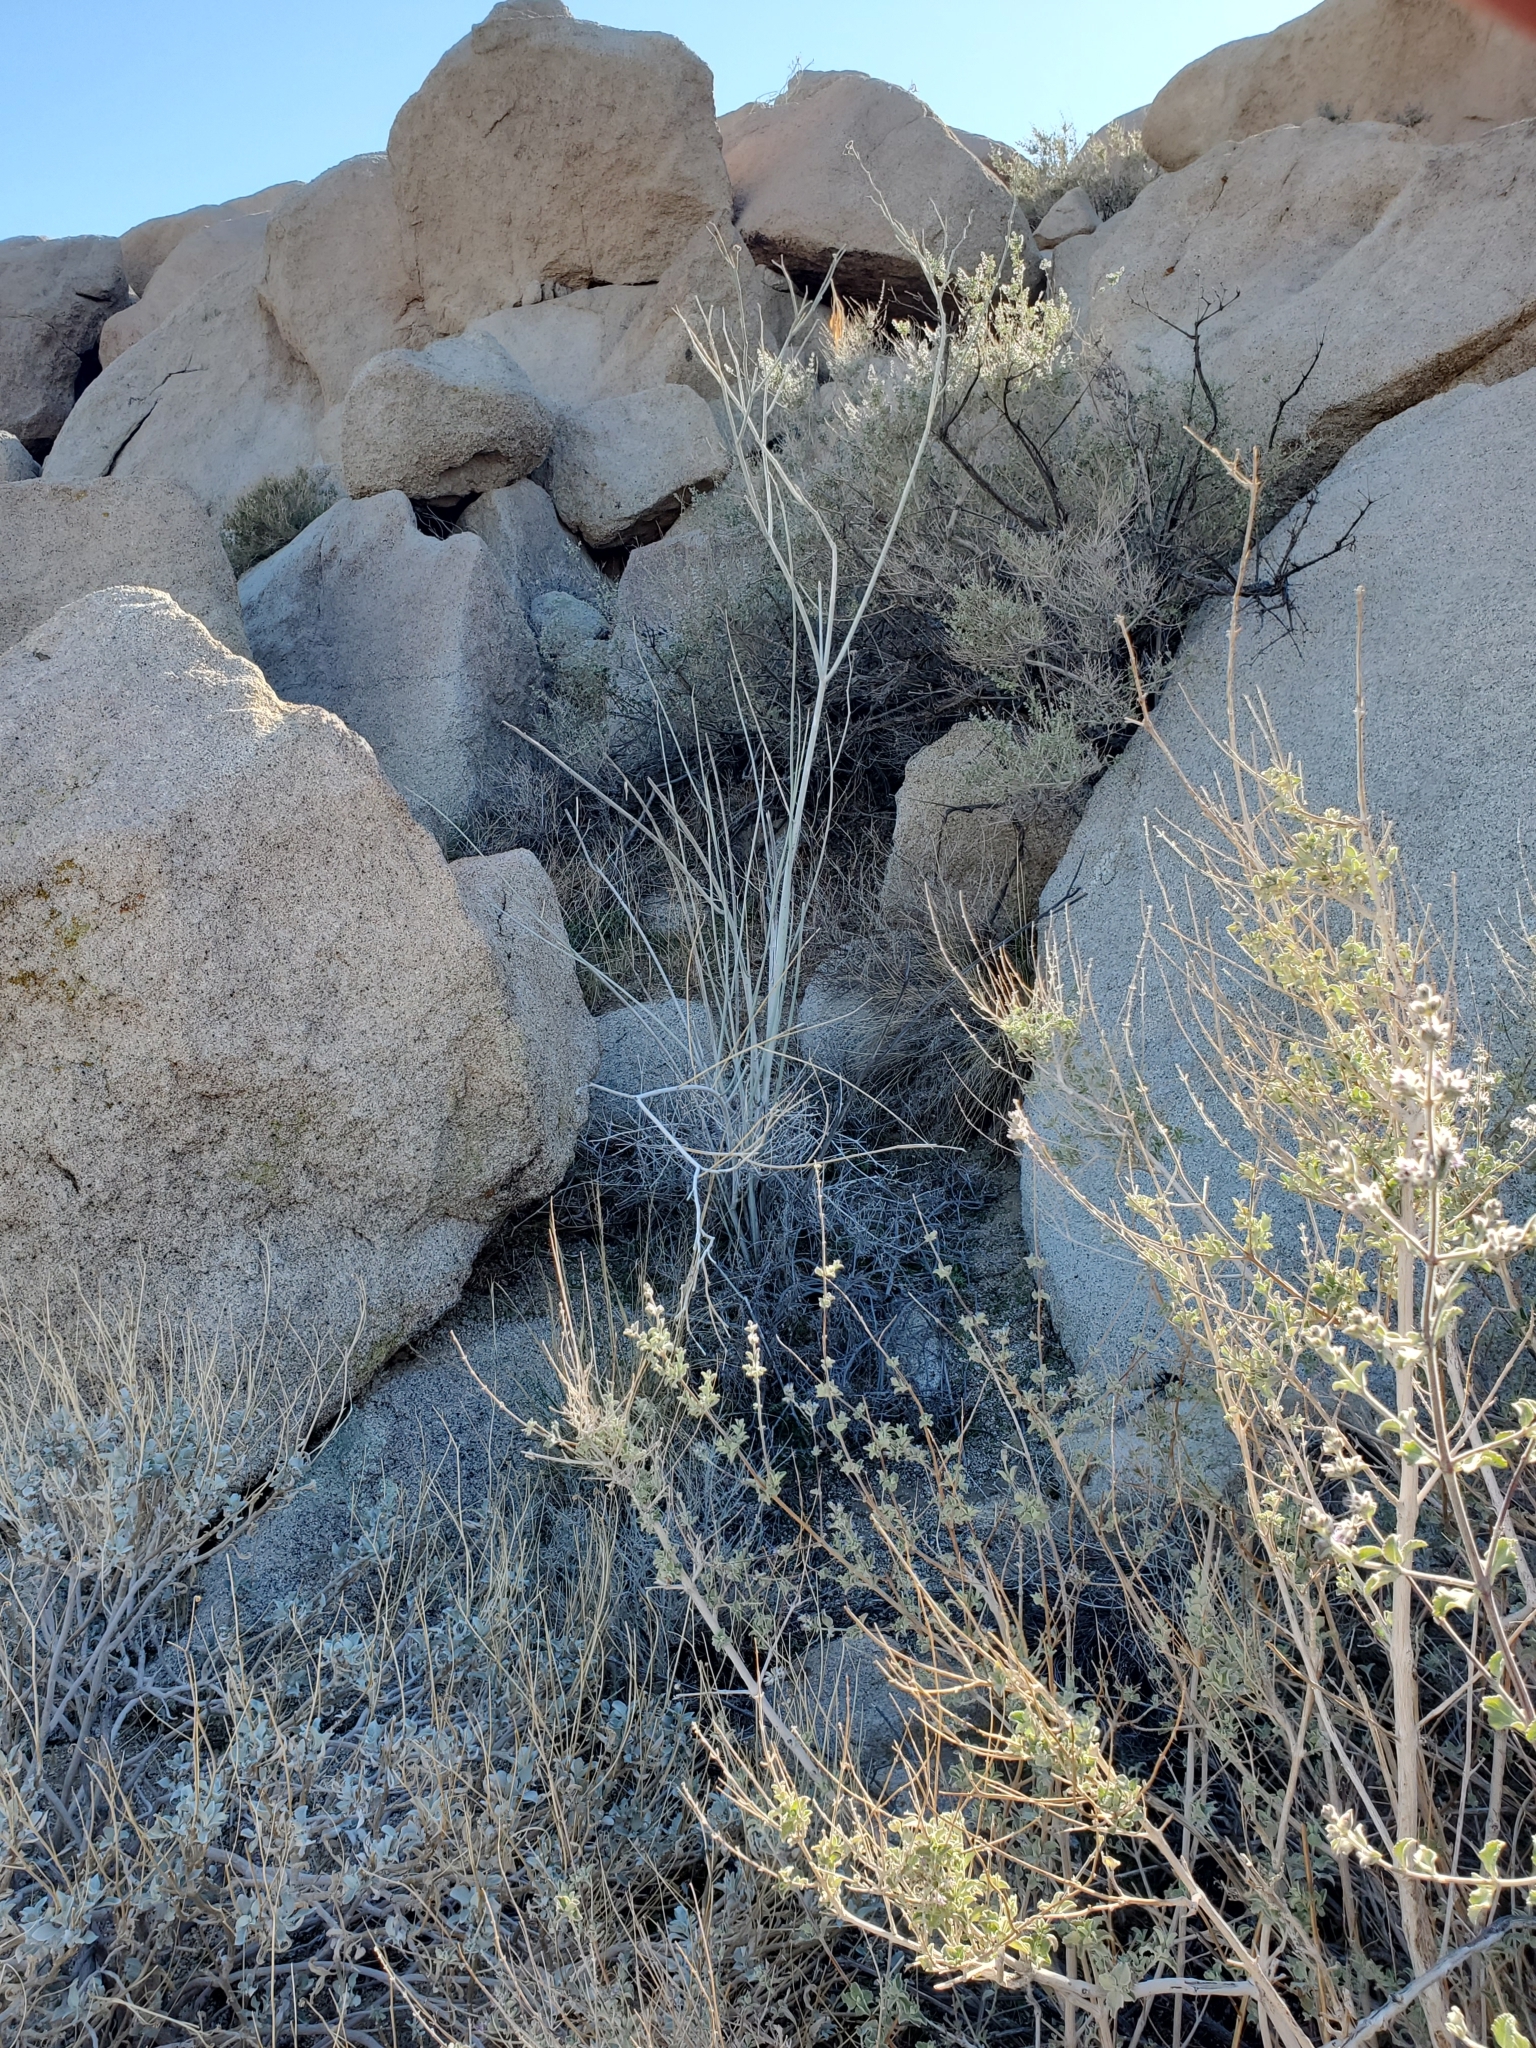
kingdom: Plantae
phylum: Tracheophyta
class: Magnoliopsida
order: Gentianales
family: Apocynaceae
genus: Asclepias
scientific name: Asclepias albicans
